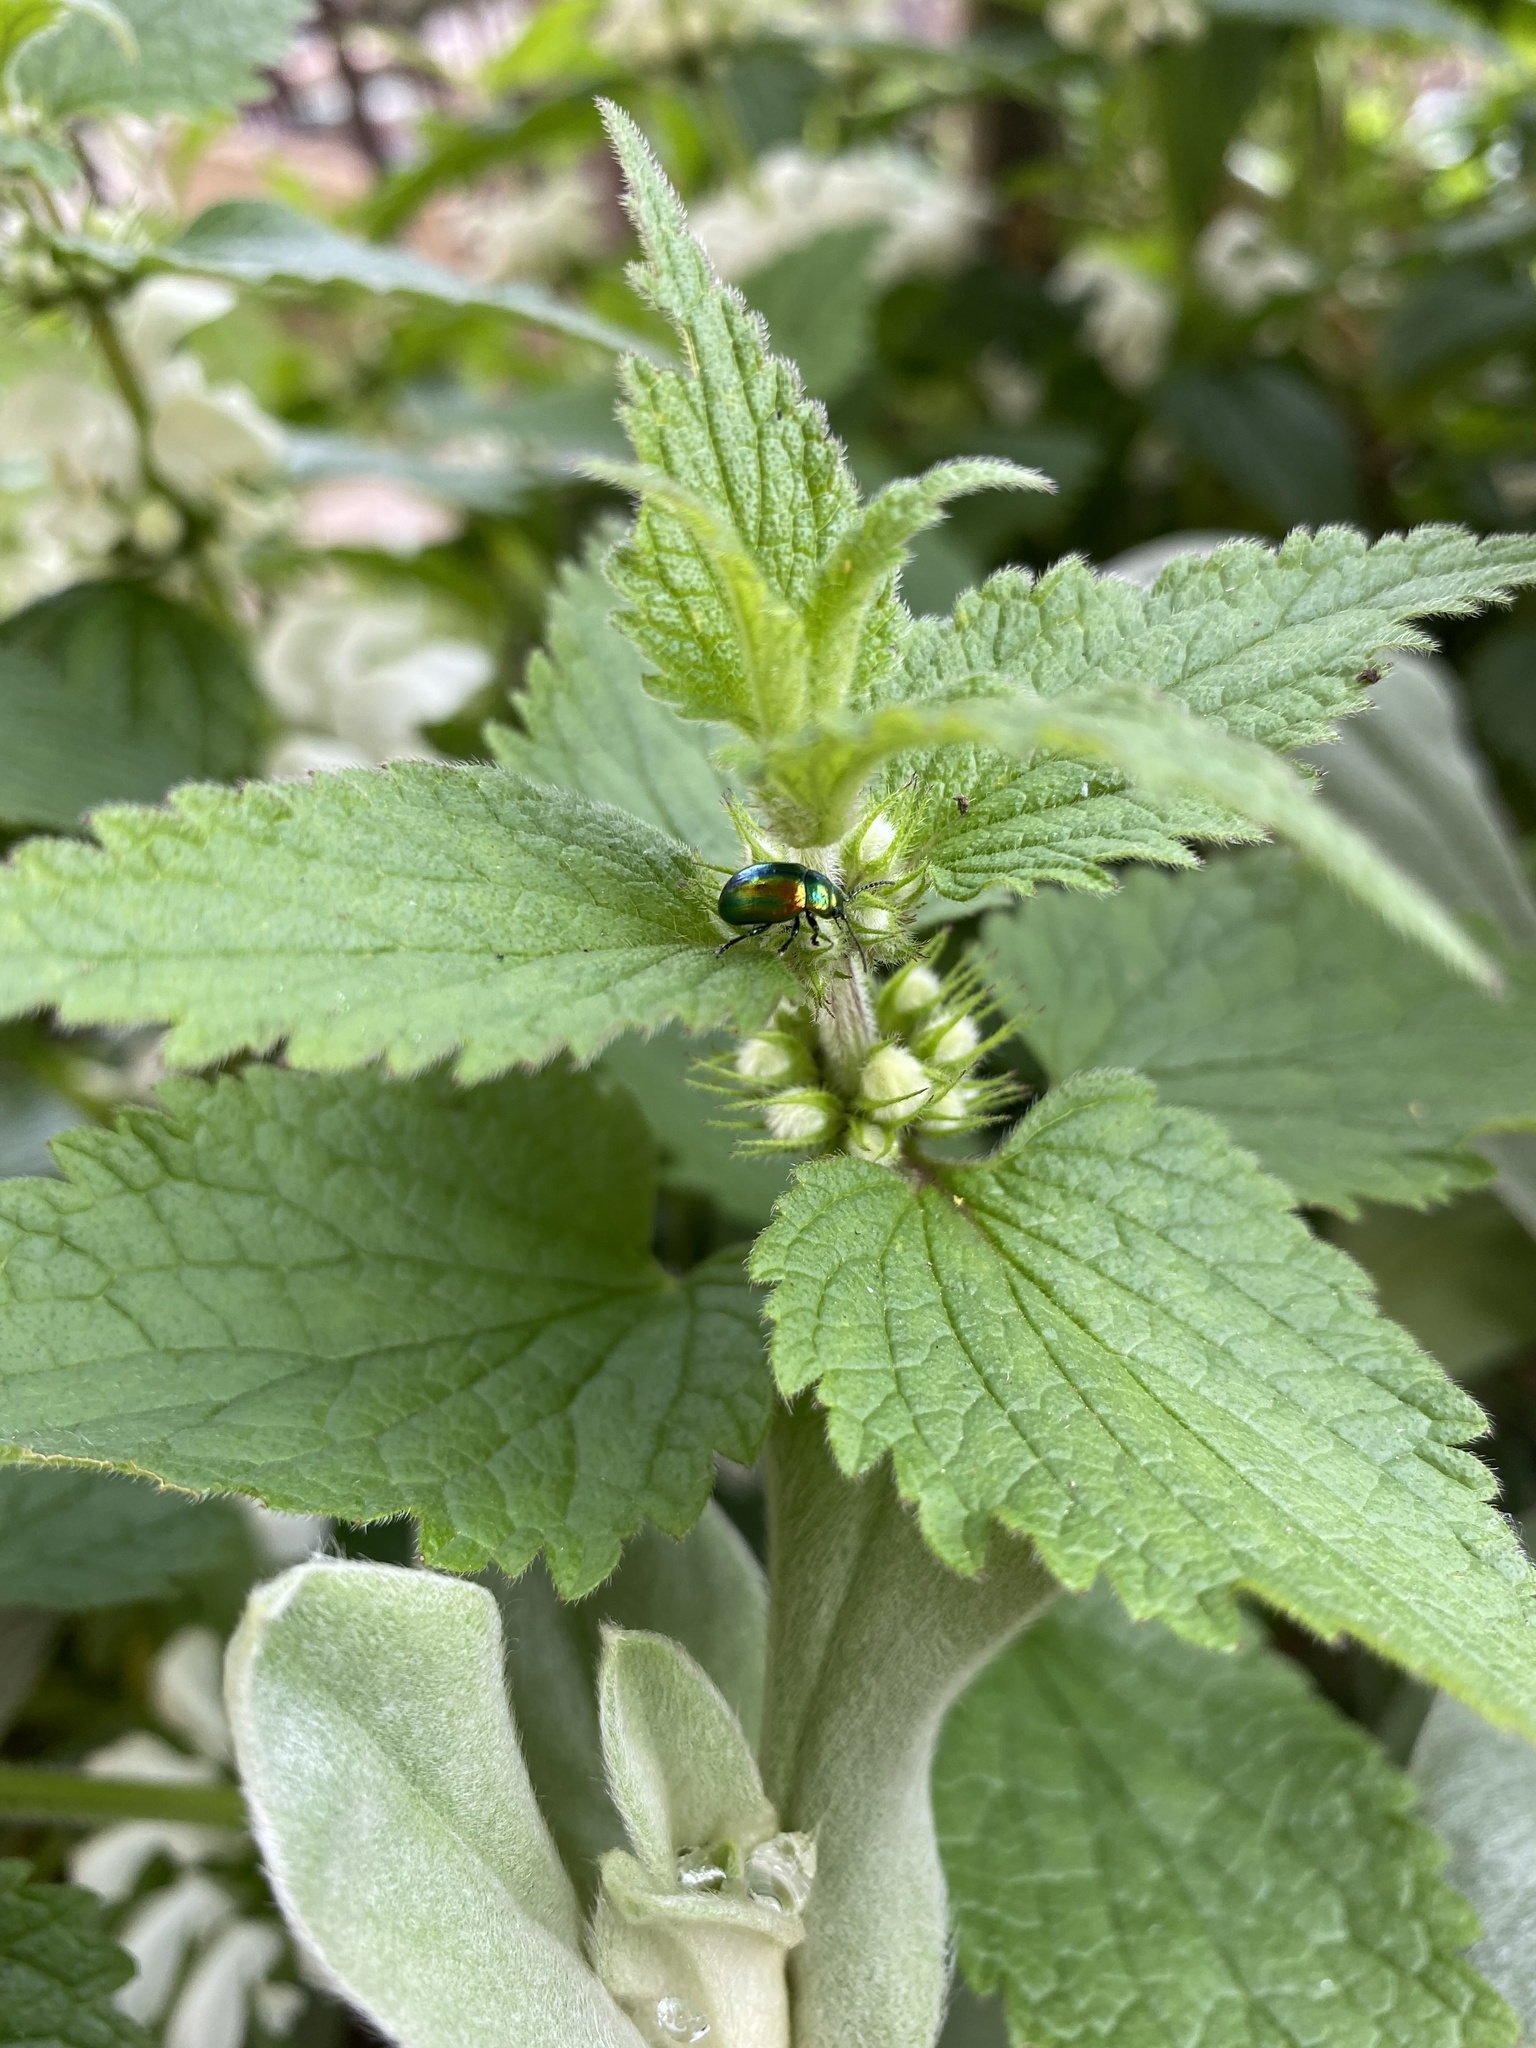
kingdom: Animalia
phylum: Arthropoda
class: Insecta
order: Coleoptera
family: Chrysomelidae
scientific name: Chrysomelidae
